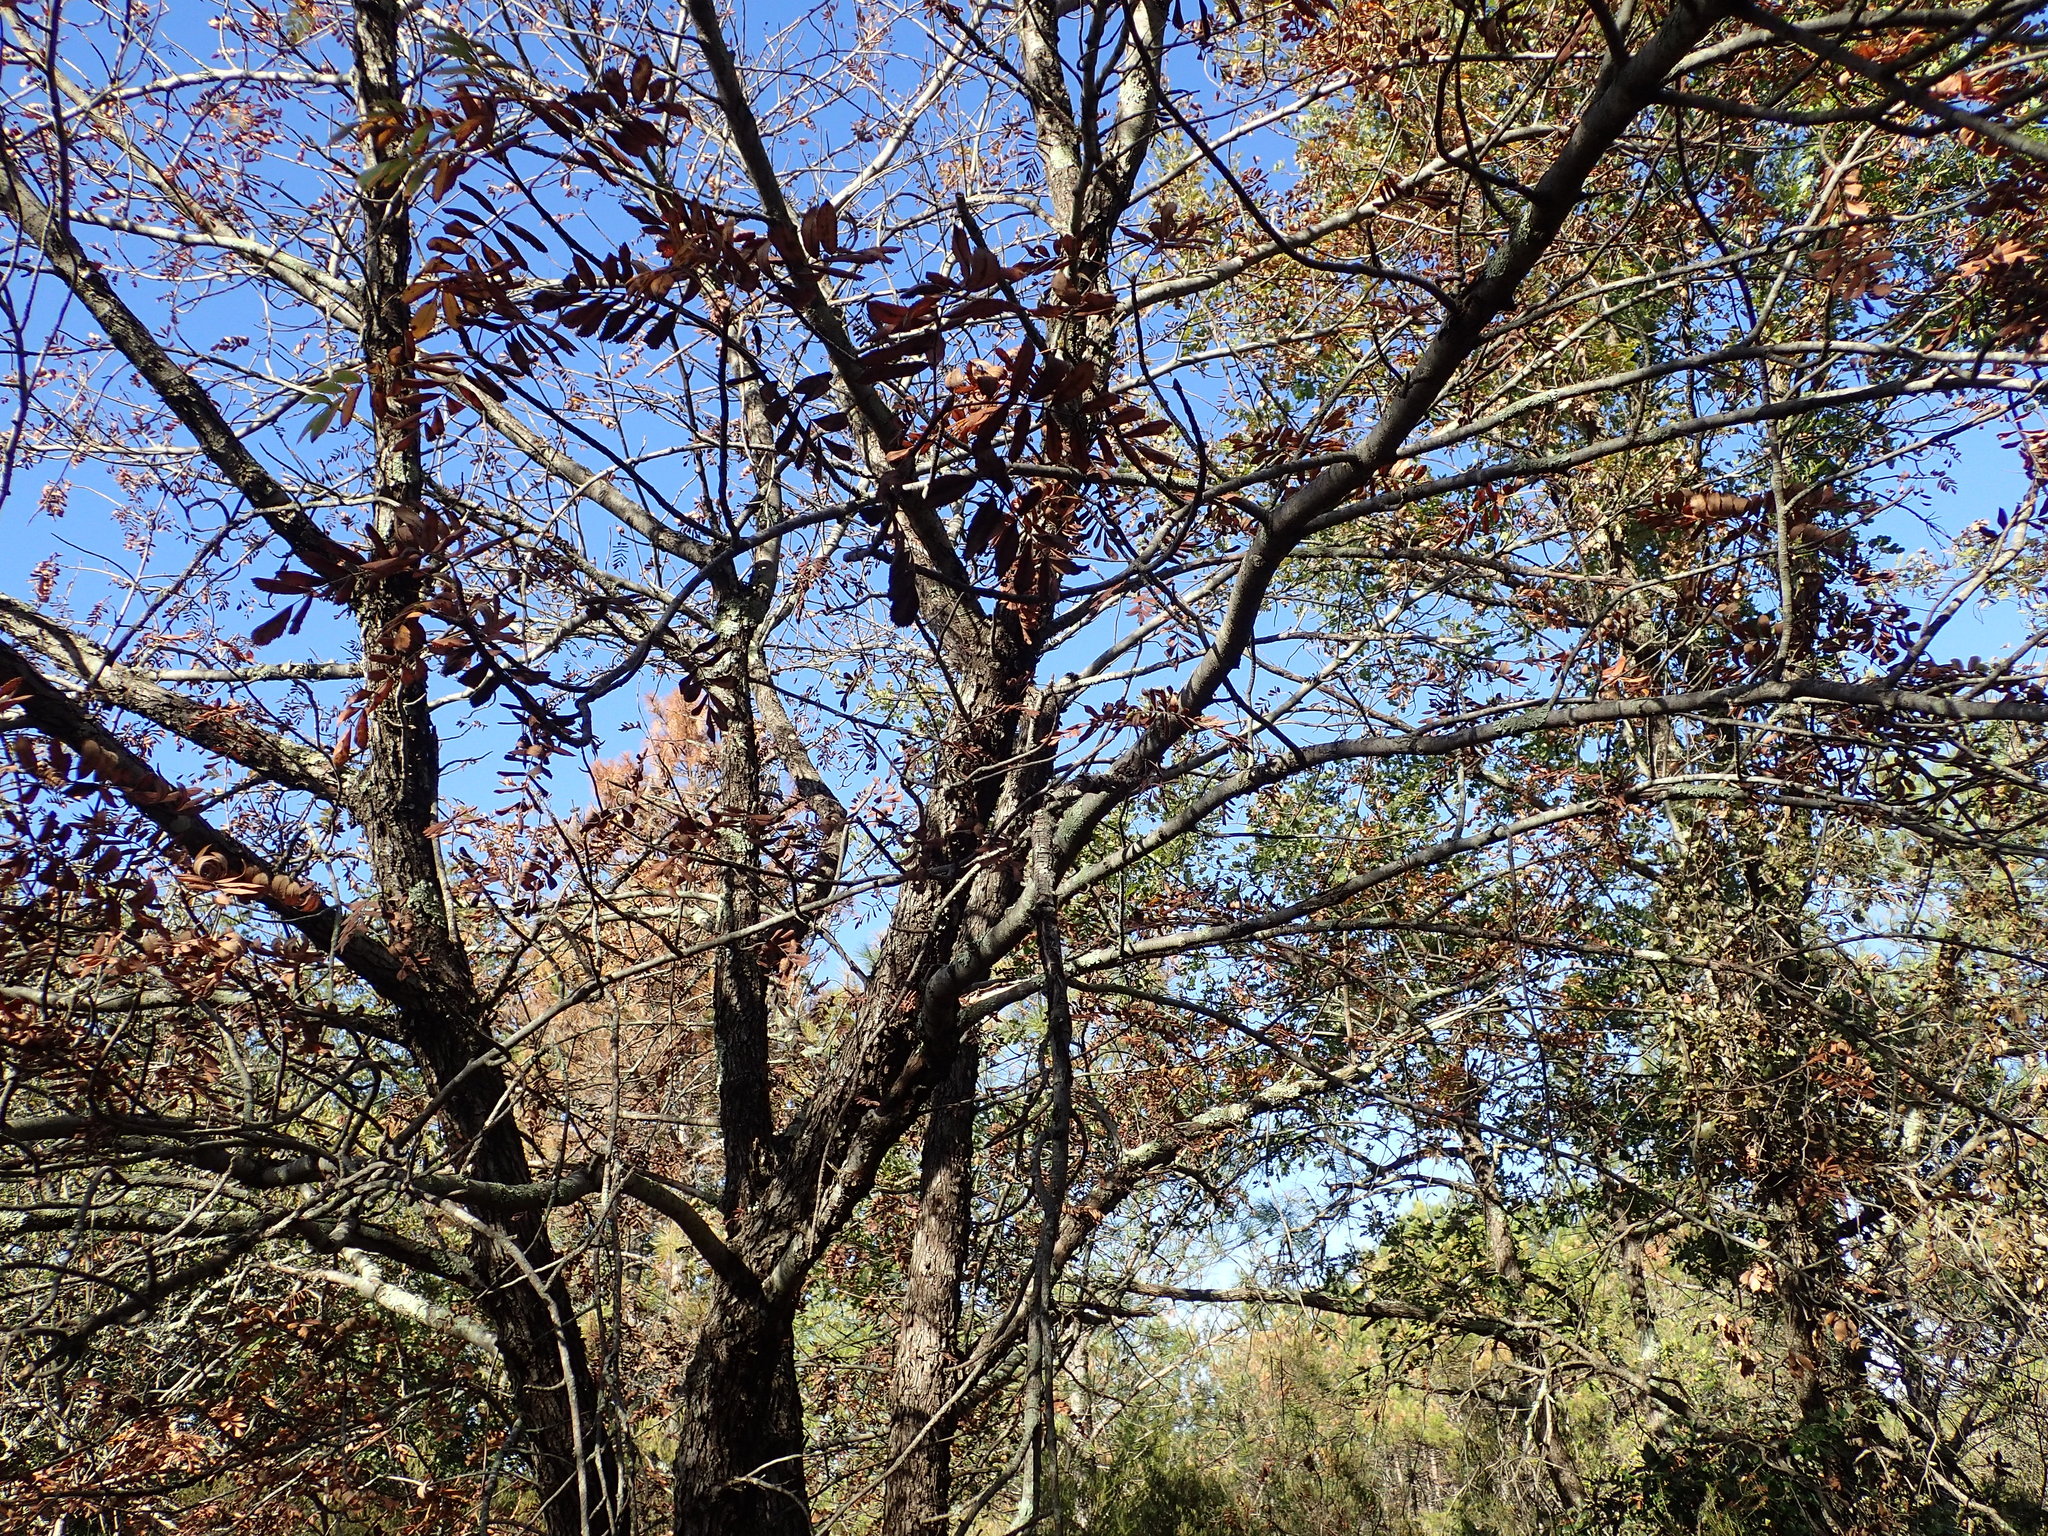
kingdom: Plantae
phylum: Tracheophyta
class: Magnoliopsida
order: Rosales
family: Rosaceae
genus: Cormus
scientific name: Cormus domestica
